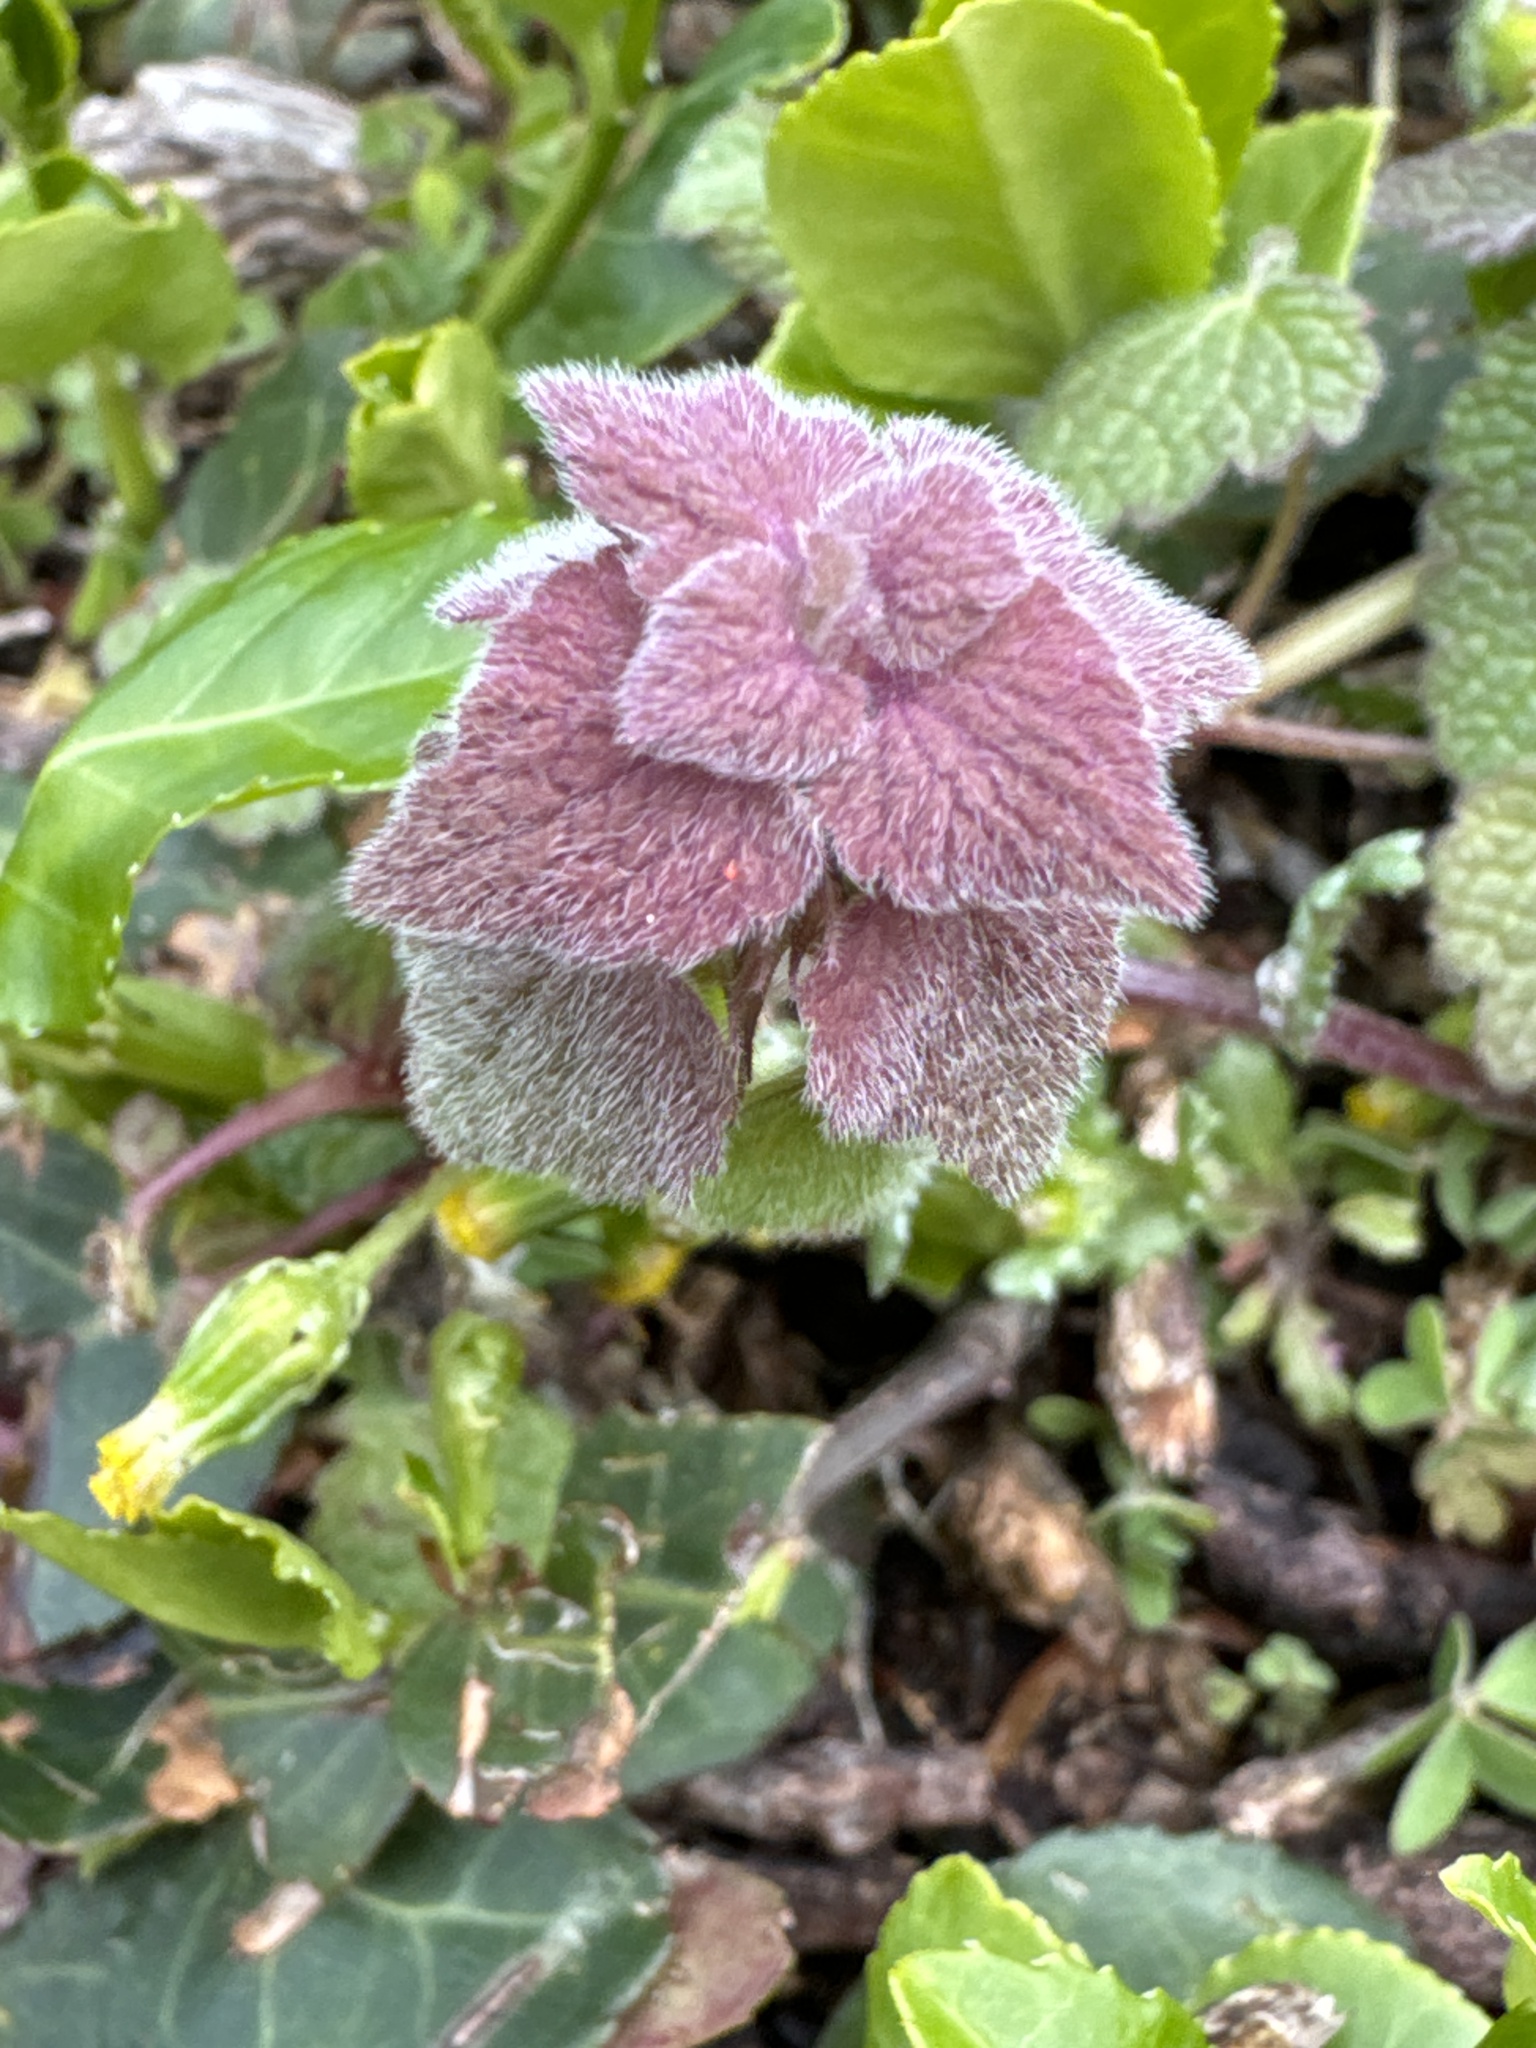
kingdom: Plantae
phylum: Tracheophyta
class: Magnoliopsida
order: Lamiales
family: Lamiaceae
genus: Lamium
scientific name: Lamium purpureum
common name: Red dead-nettle
